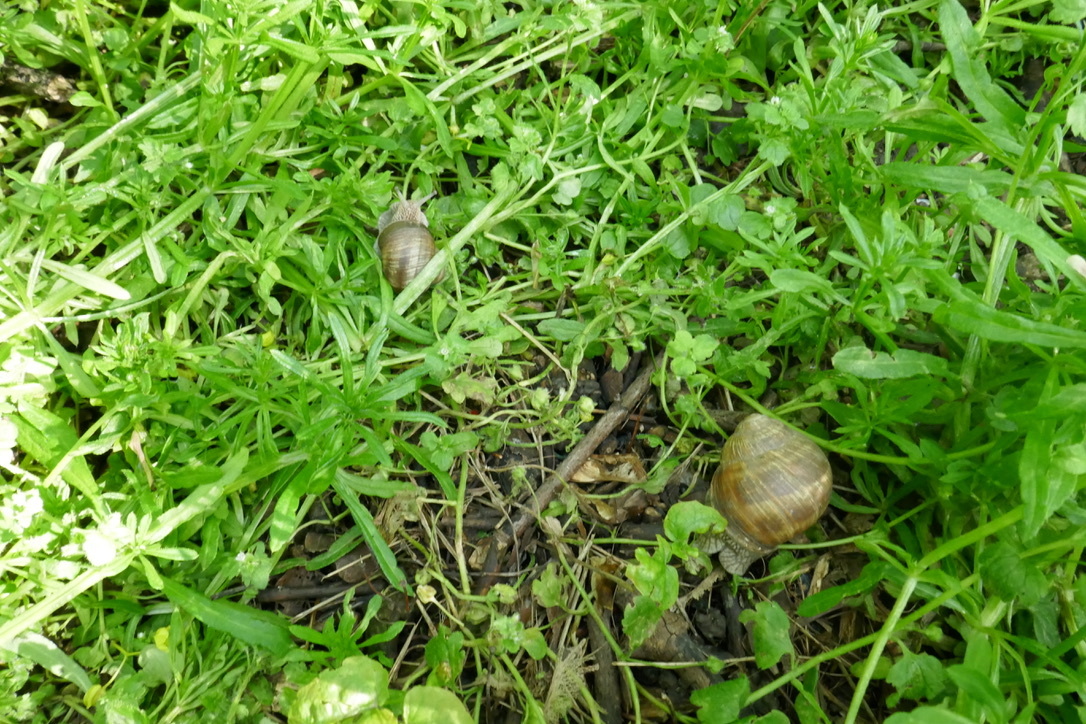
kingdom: Animalia
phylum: Mollusca
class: Gastropoda
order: Stylommatophora
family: Helicidae
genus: Helix
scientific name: Helix pomatia
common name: Roman snail
